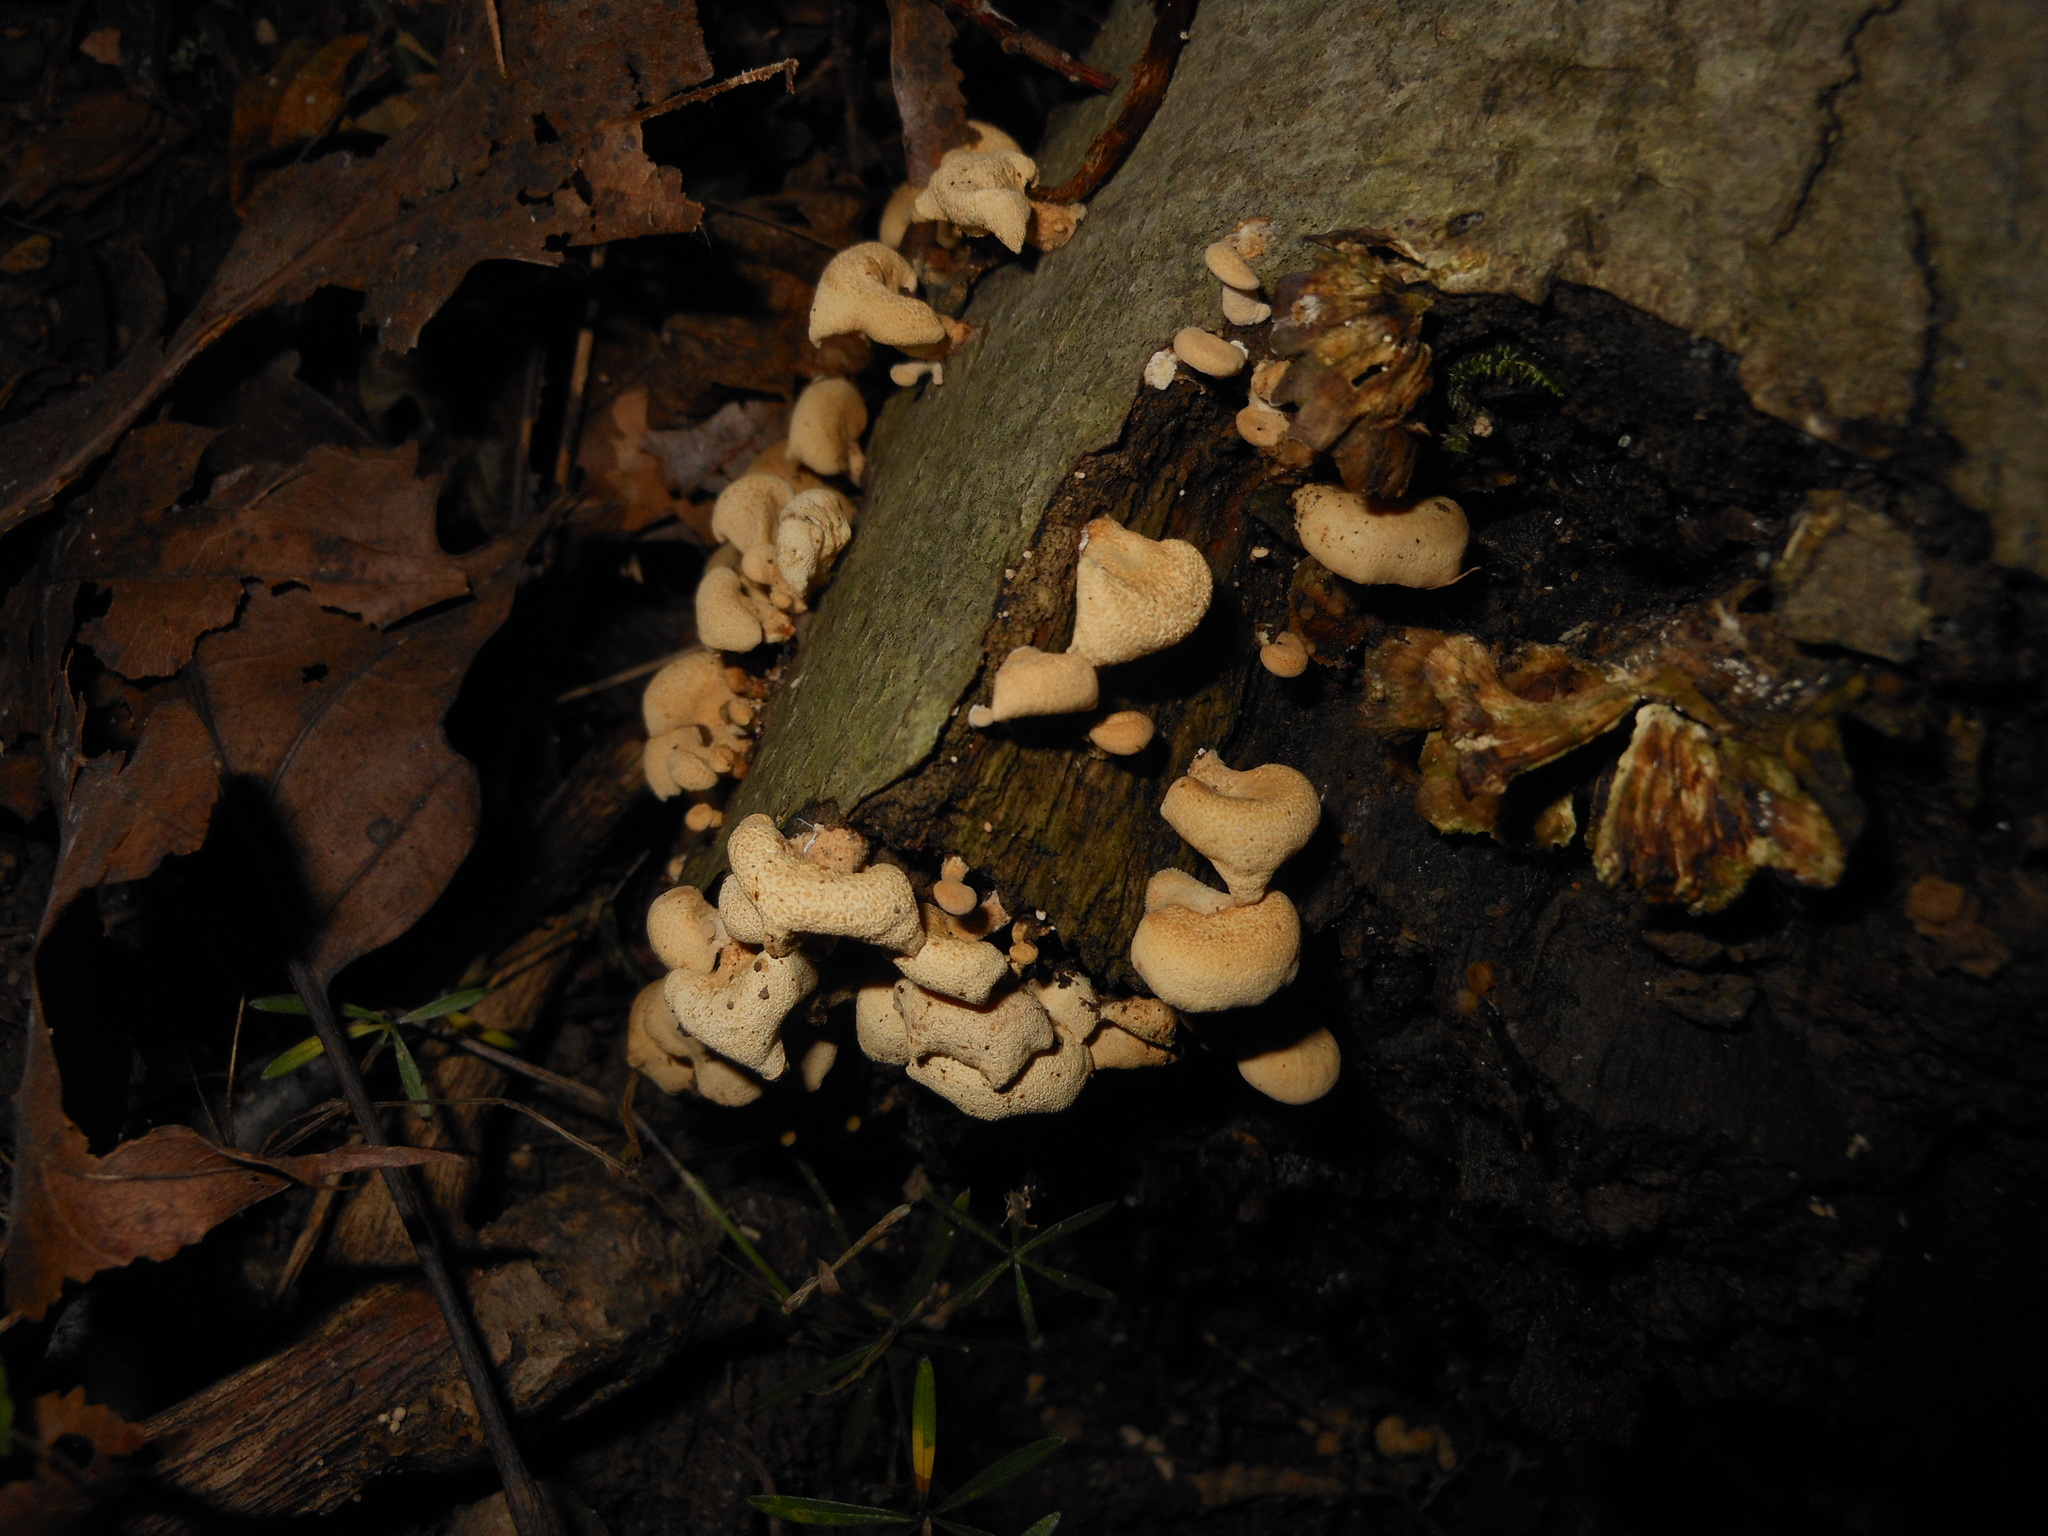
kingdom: Fungi
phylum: Basidiomycota
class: Agaricomycetes
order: Agaricales
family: Mycenaceae
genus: Panellus
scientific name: Panellus stipticus
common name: Bitter oysterling
